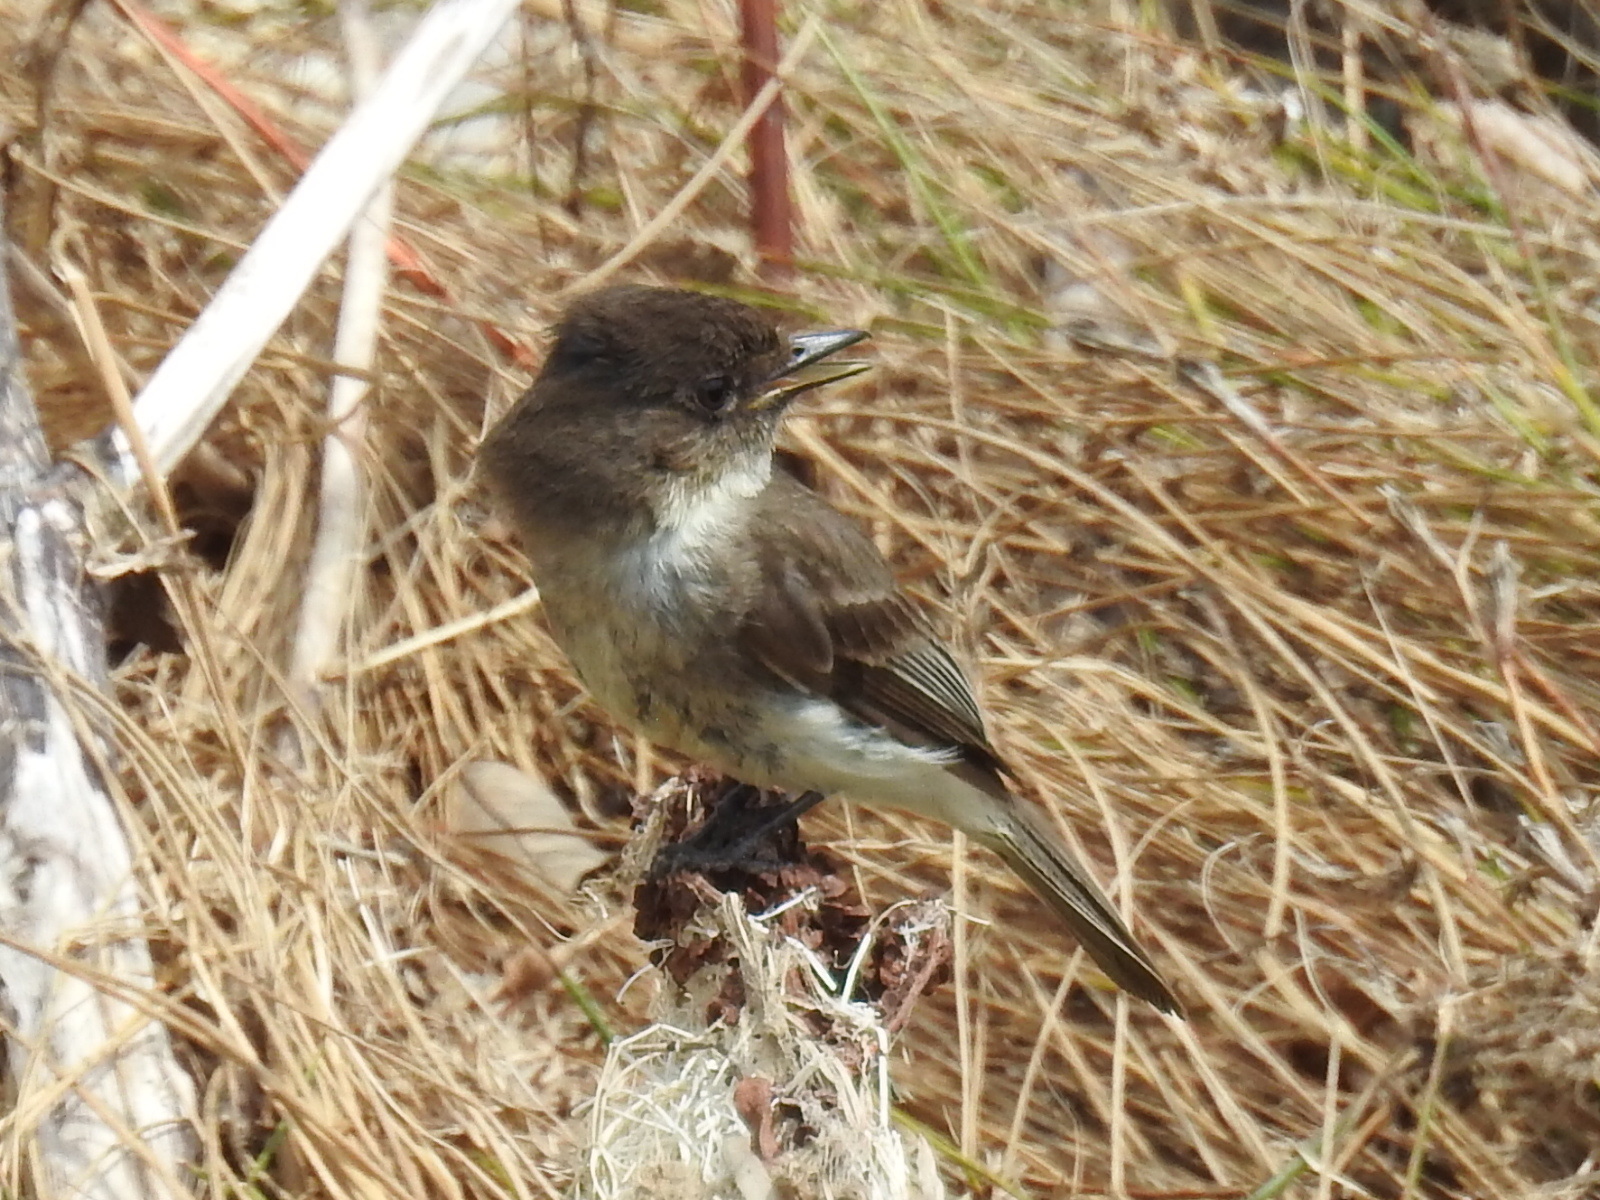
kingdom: Animalia
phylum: Chordata
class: Aves
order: Passeriformes
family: Tyrannidae
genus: Sayornis
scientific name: Sayornis phoebe
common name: Eastern phoebe
